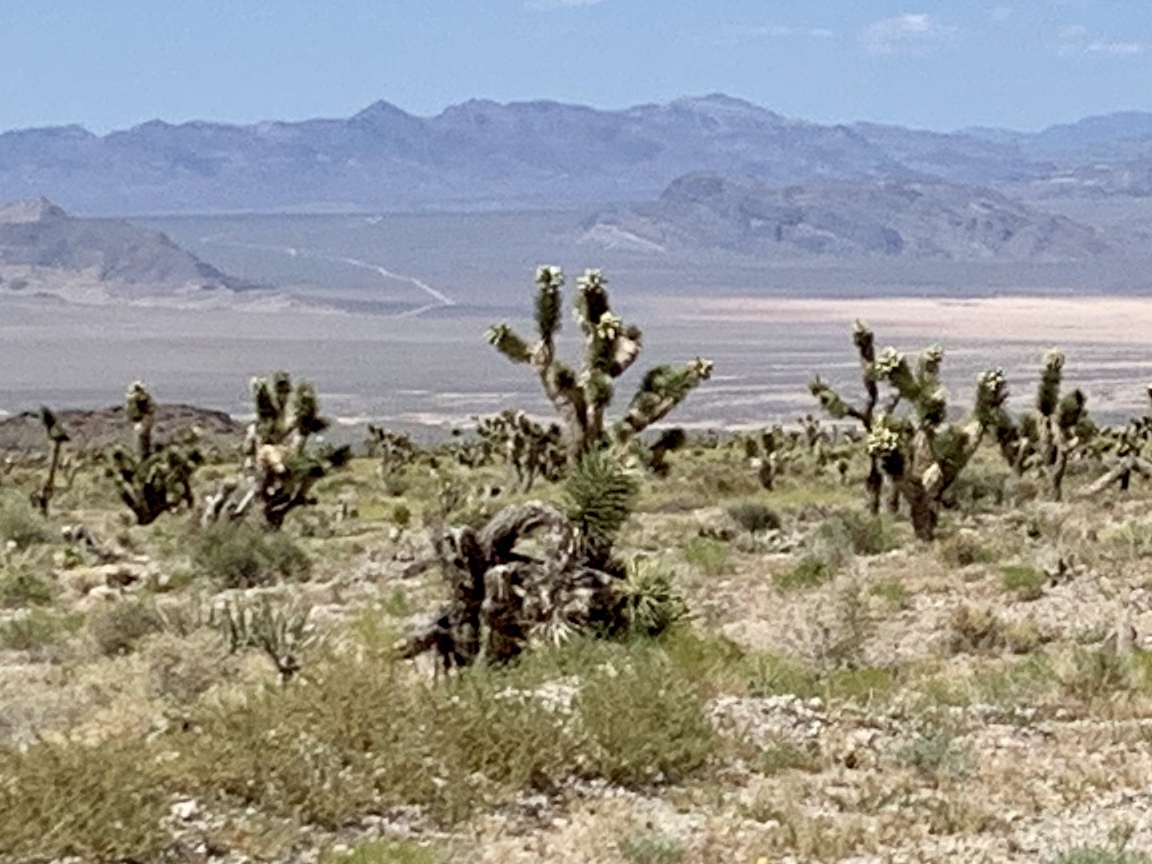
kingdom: Plantae
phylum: Tracheophyta
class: Liliopsida
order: Asparagales
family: Asparagaceae
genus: Yucca
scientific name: Yucca brevifolia
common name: Joshua tree
